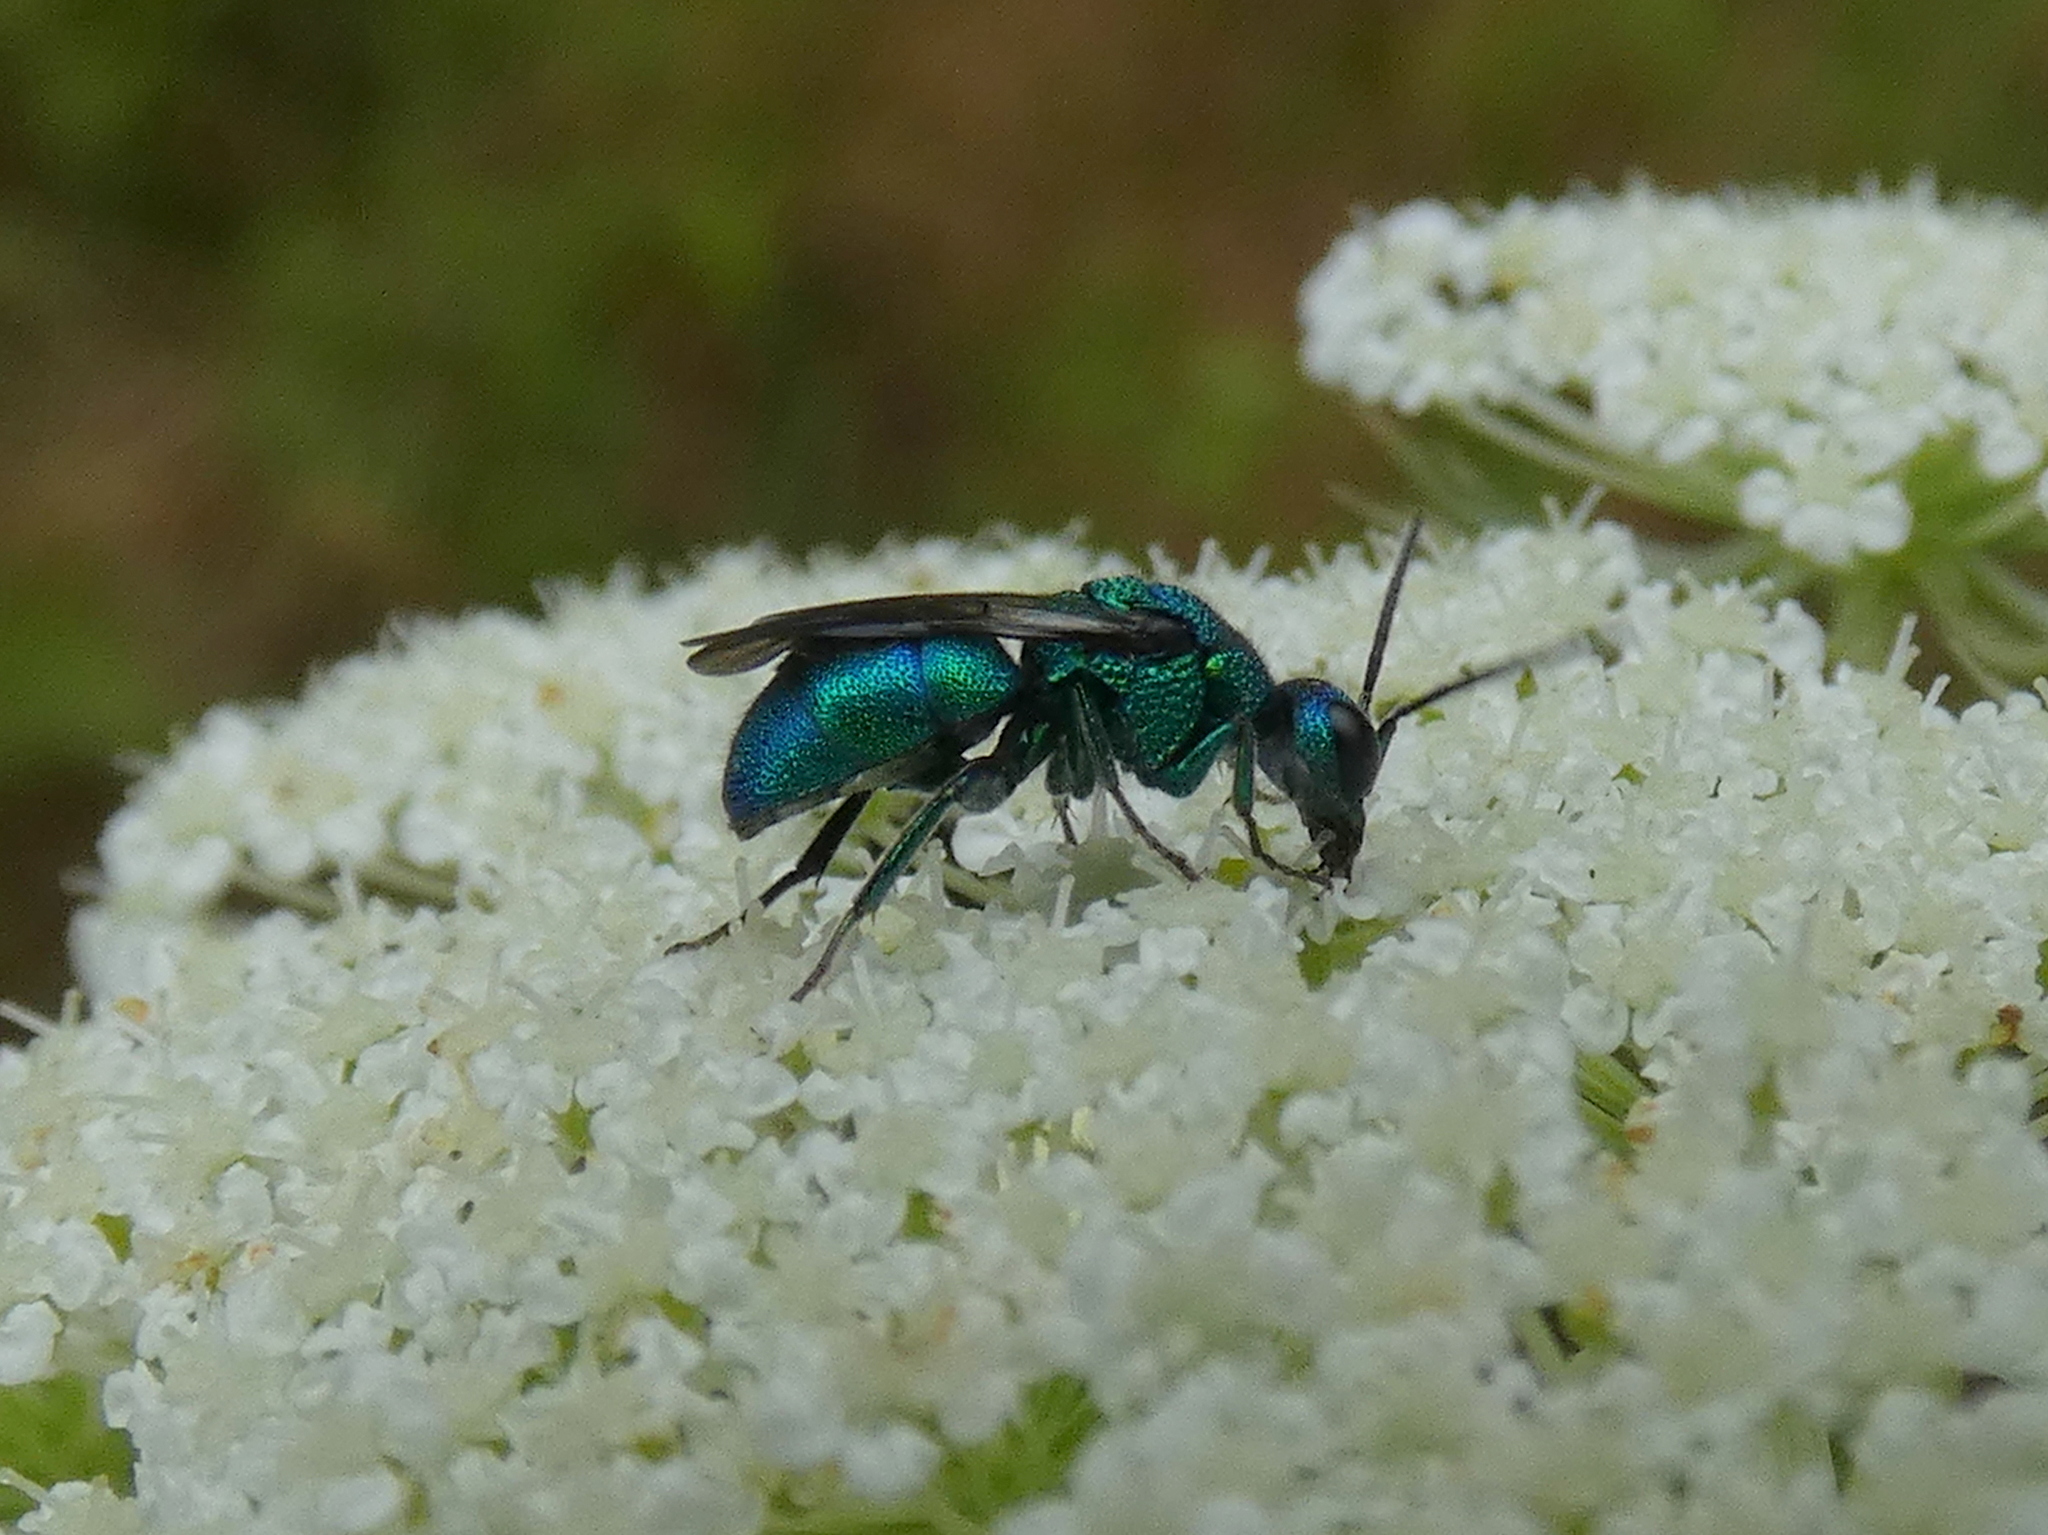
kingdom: Animalia
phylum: Arthropoda
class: Insecta
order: Hymenoptera
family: Chrysididae
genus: Holopyga
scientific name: Holopyga
